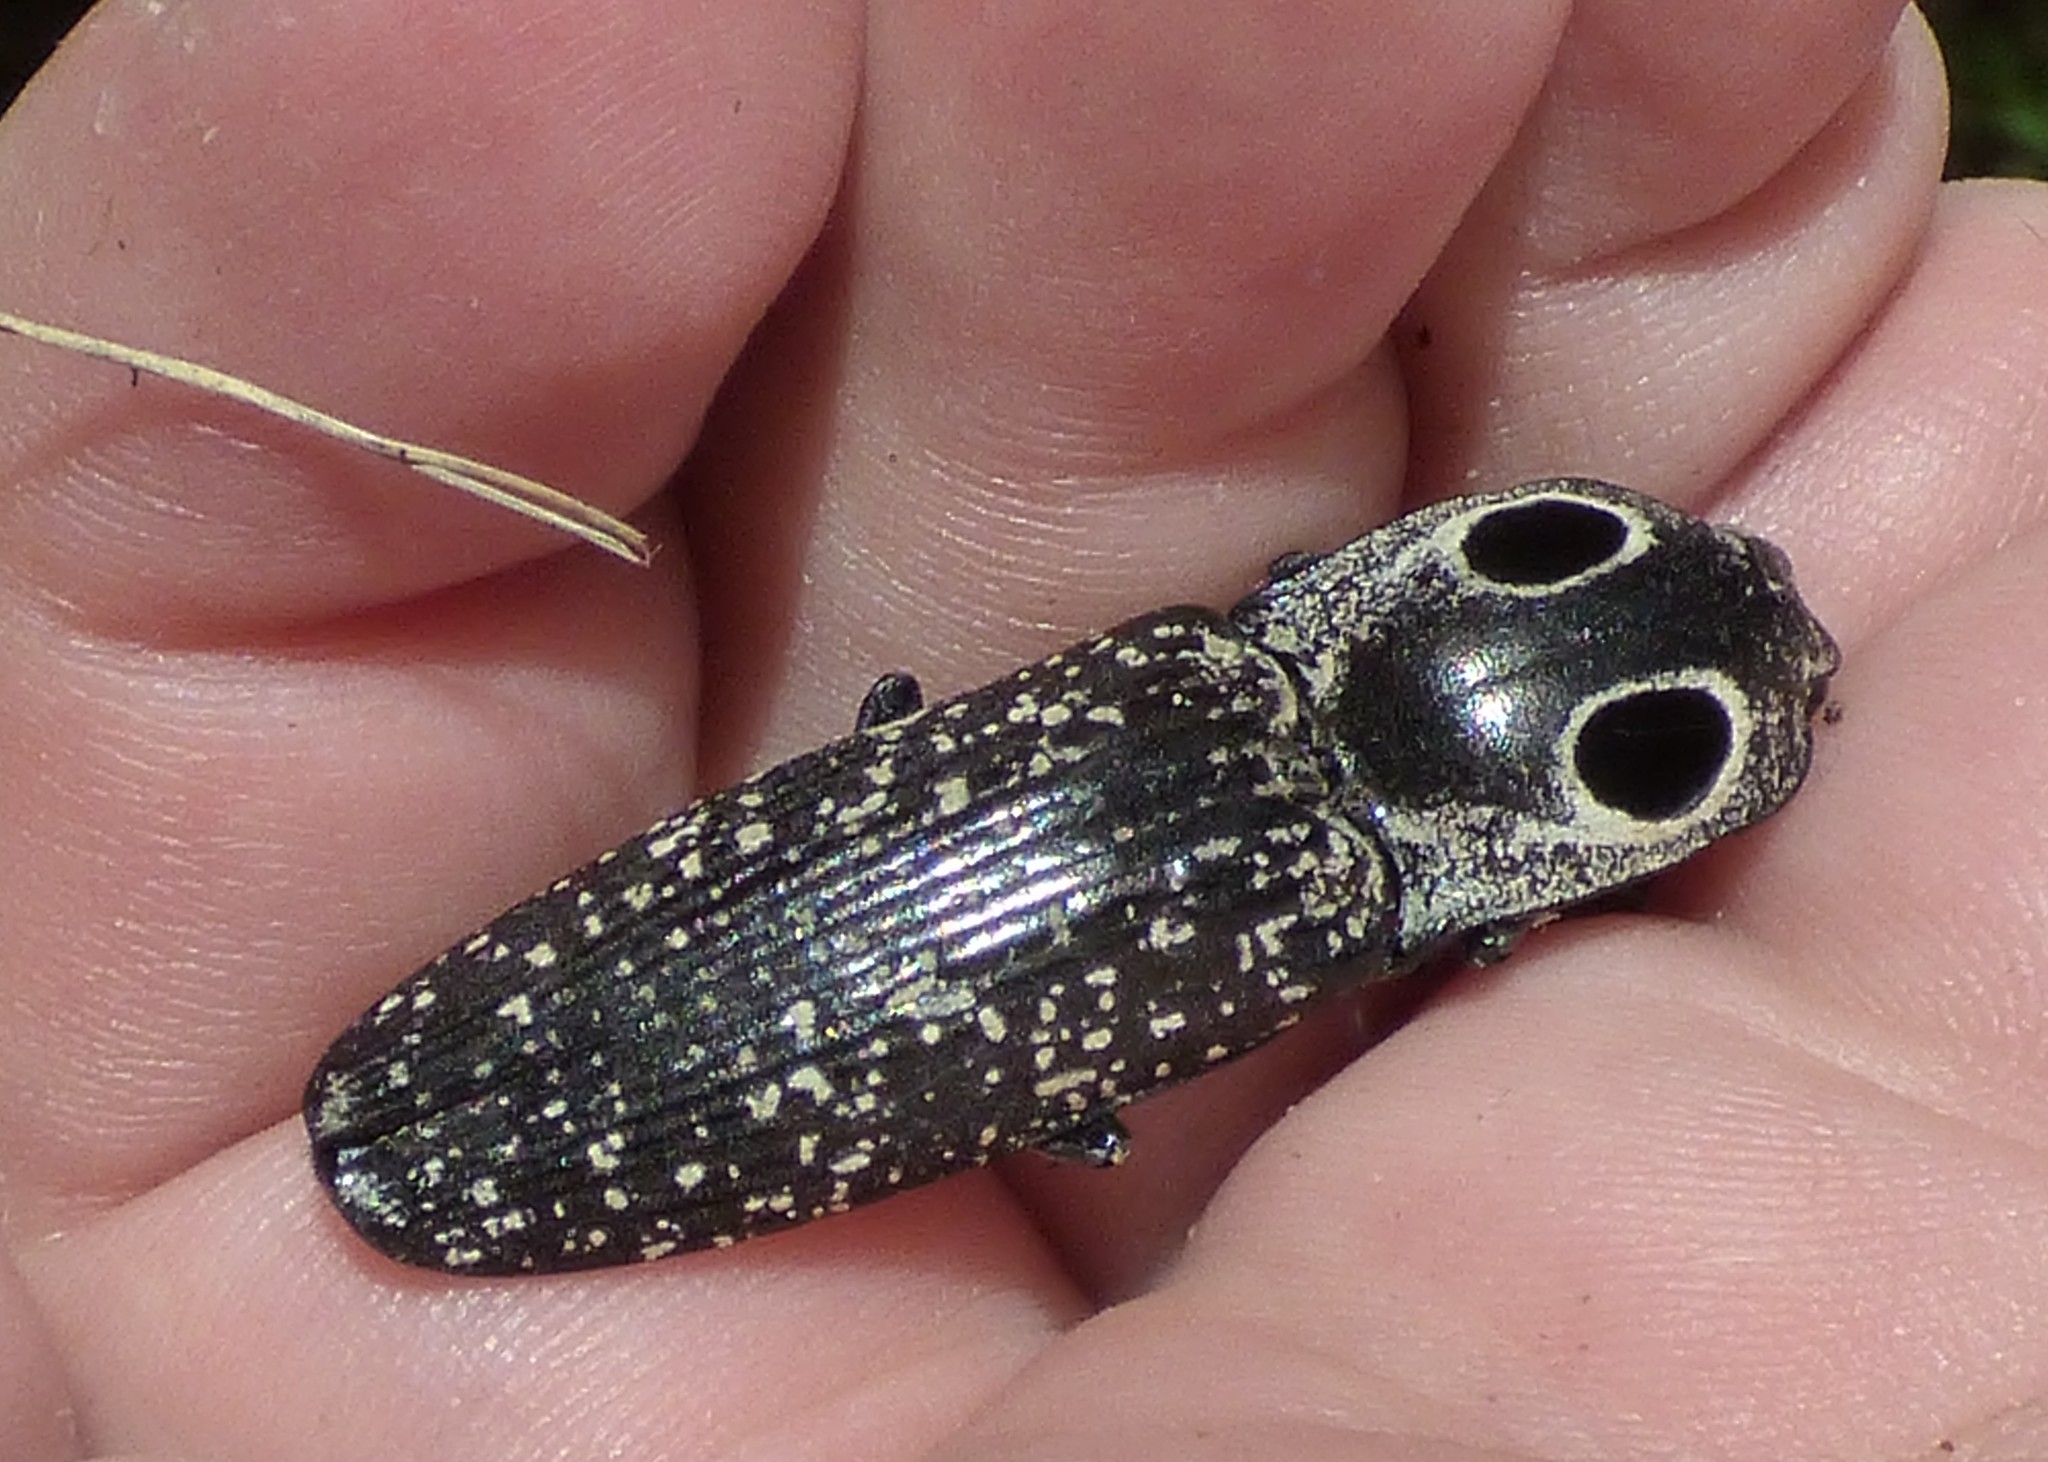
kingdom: Animalia
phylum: Arthropoda
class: Insecta
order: Coleoptera
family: Elateridae
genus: Alaus
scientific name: Alaus oculatus
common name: Eastern eyed click beetle
